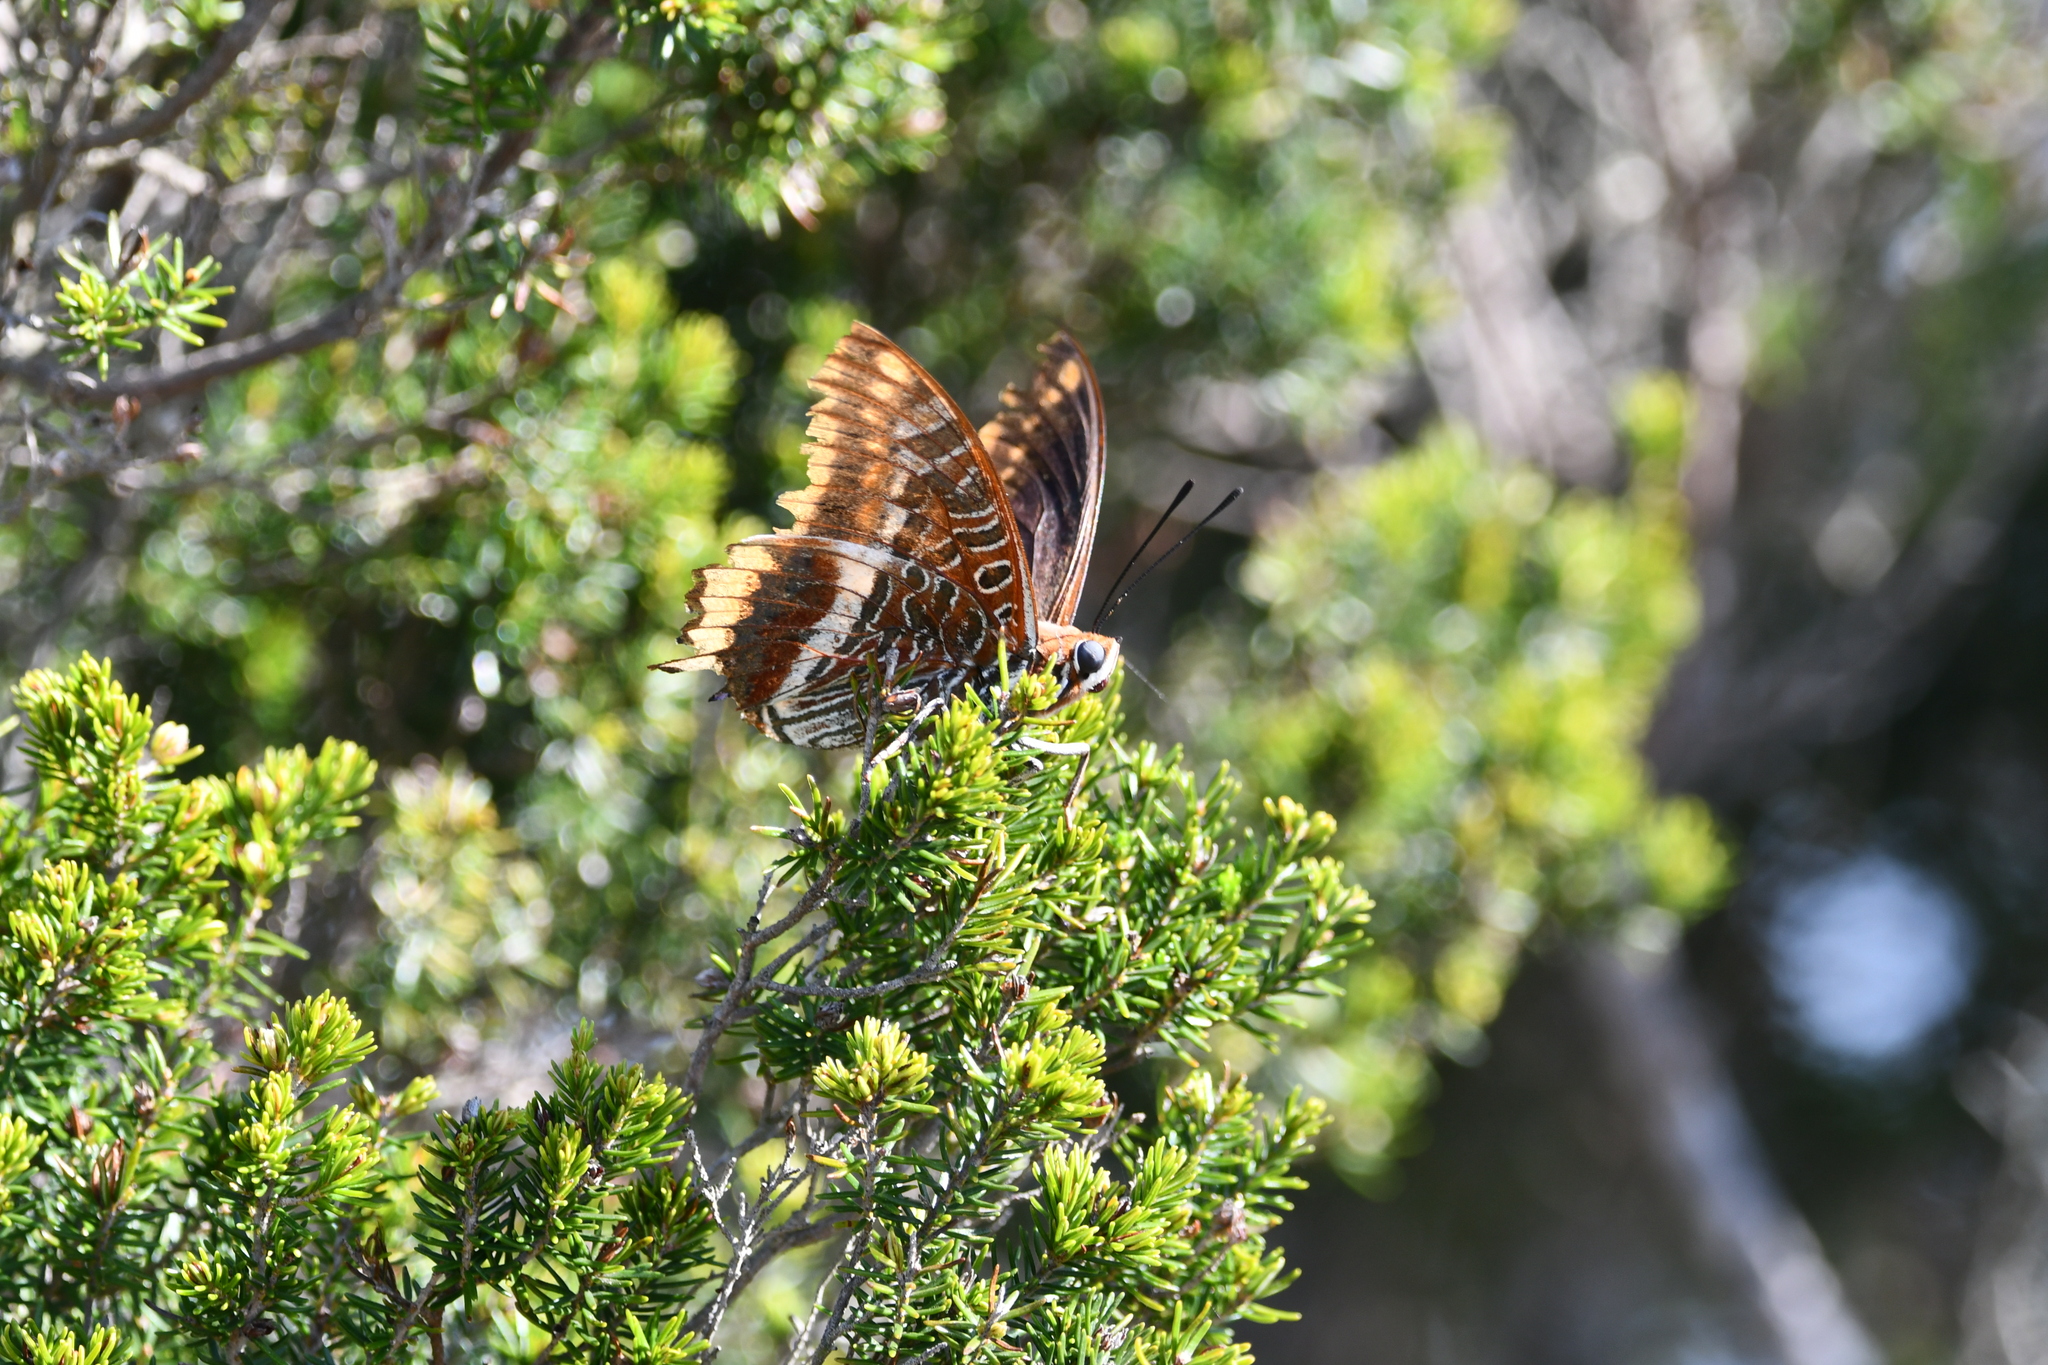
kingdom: Animalia
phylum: Arthropoda
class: Insecta
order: Lepidoptera
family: Nymphalidae
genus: Charaxes
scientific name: Charaxes jasius
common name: Two tailed pasha
